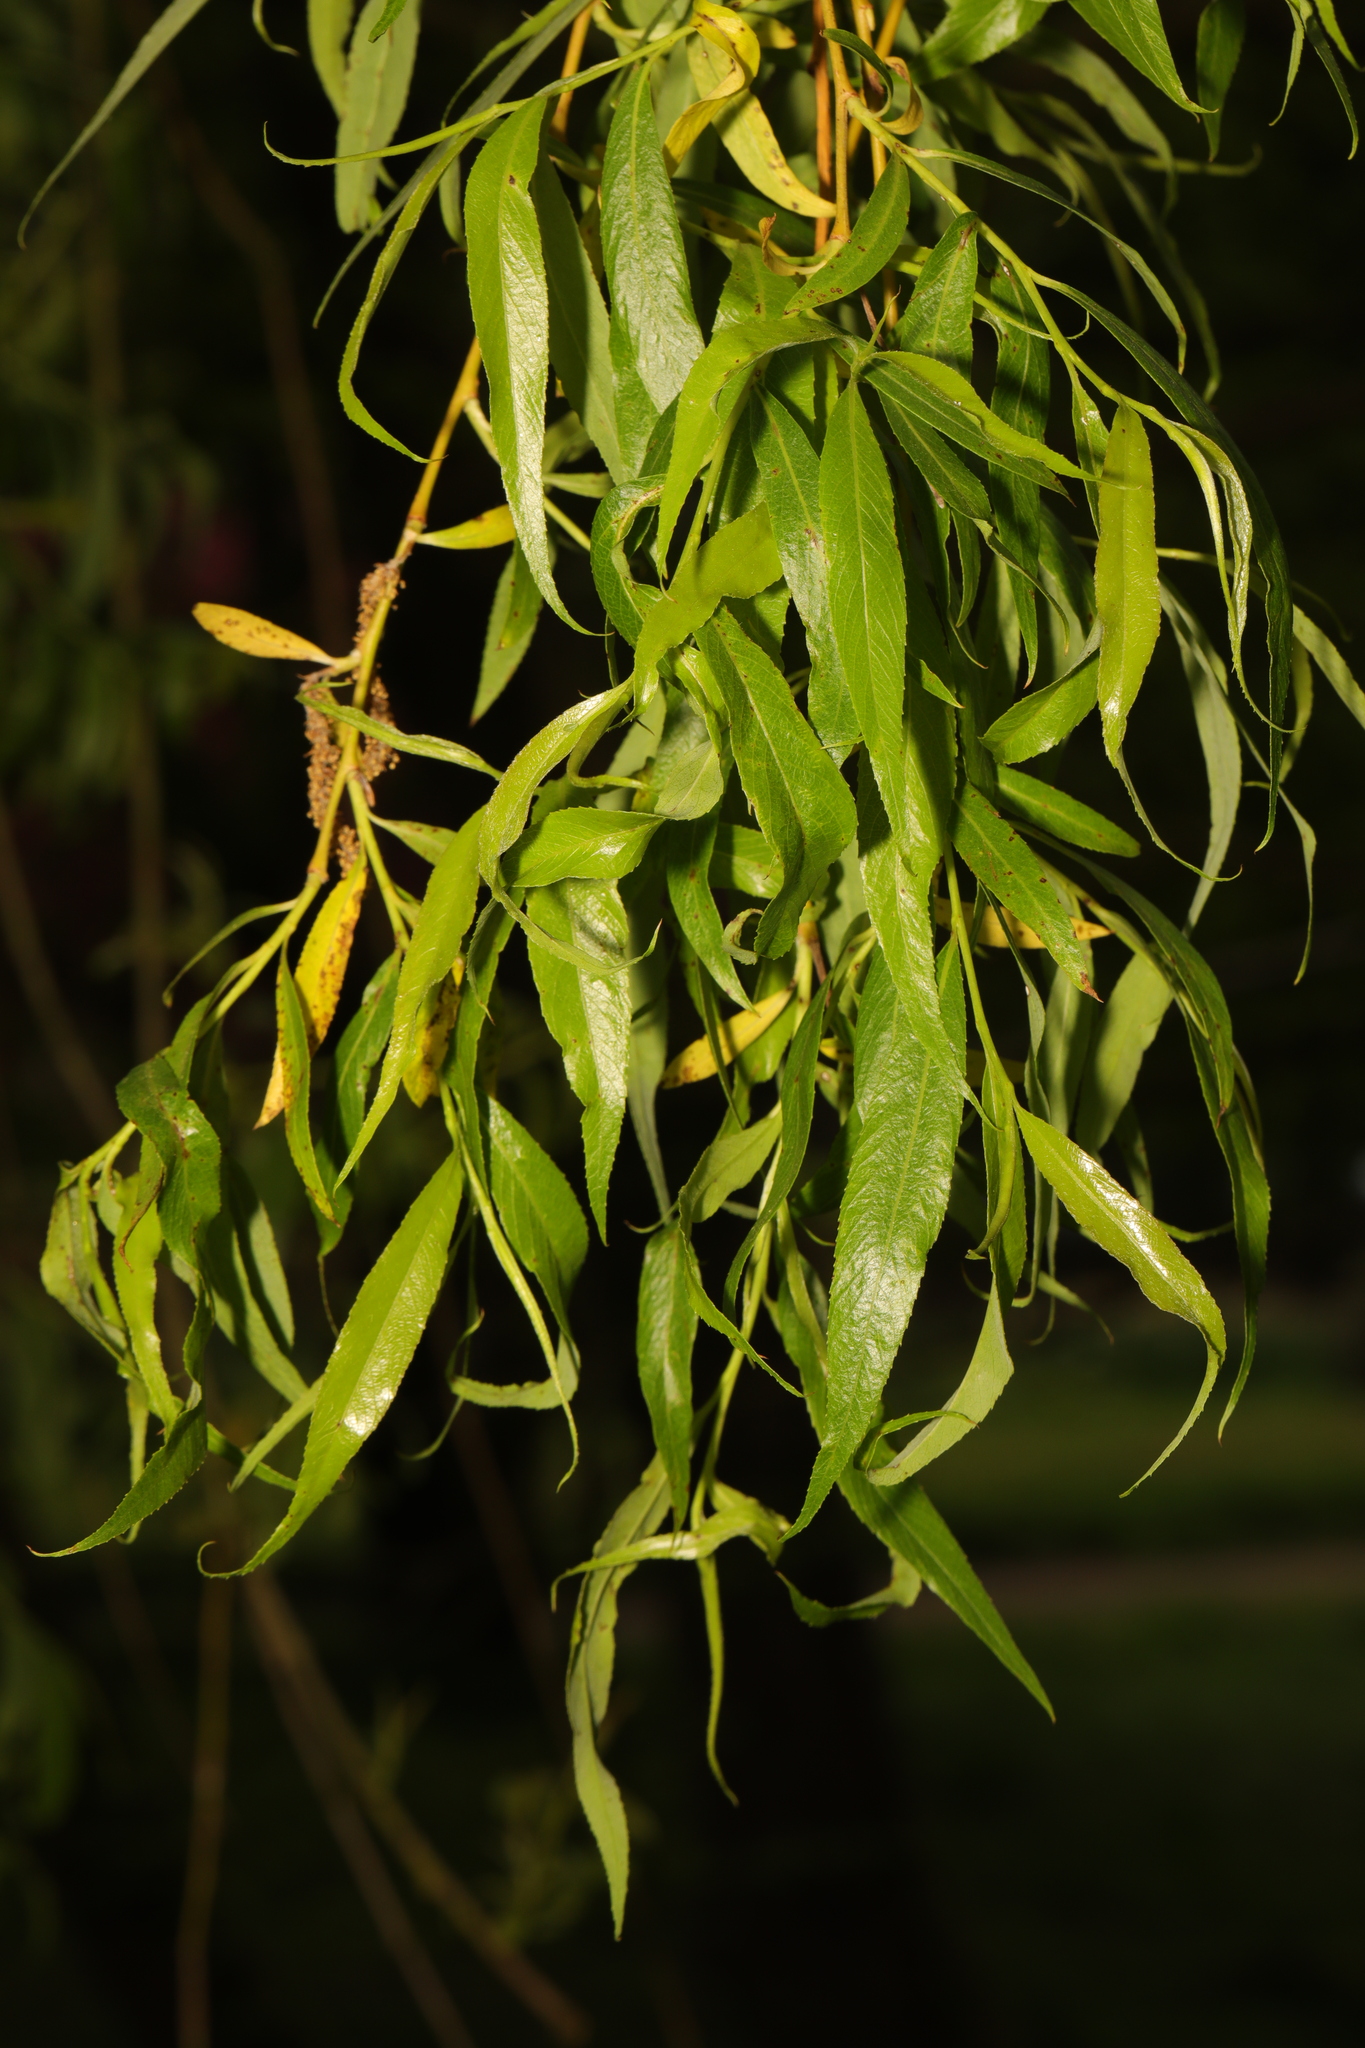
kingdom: Plantae
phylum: Tracheophyta
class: Magnoliopsida
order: Malpighiales
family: Salicaceae
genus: Salix
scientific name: Salix pendulina
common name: Wisconsin weeping willow
